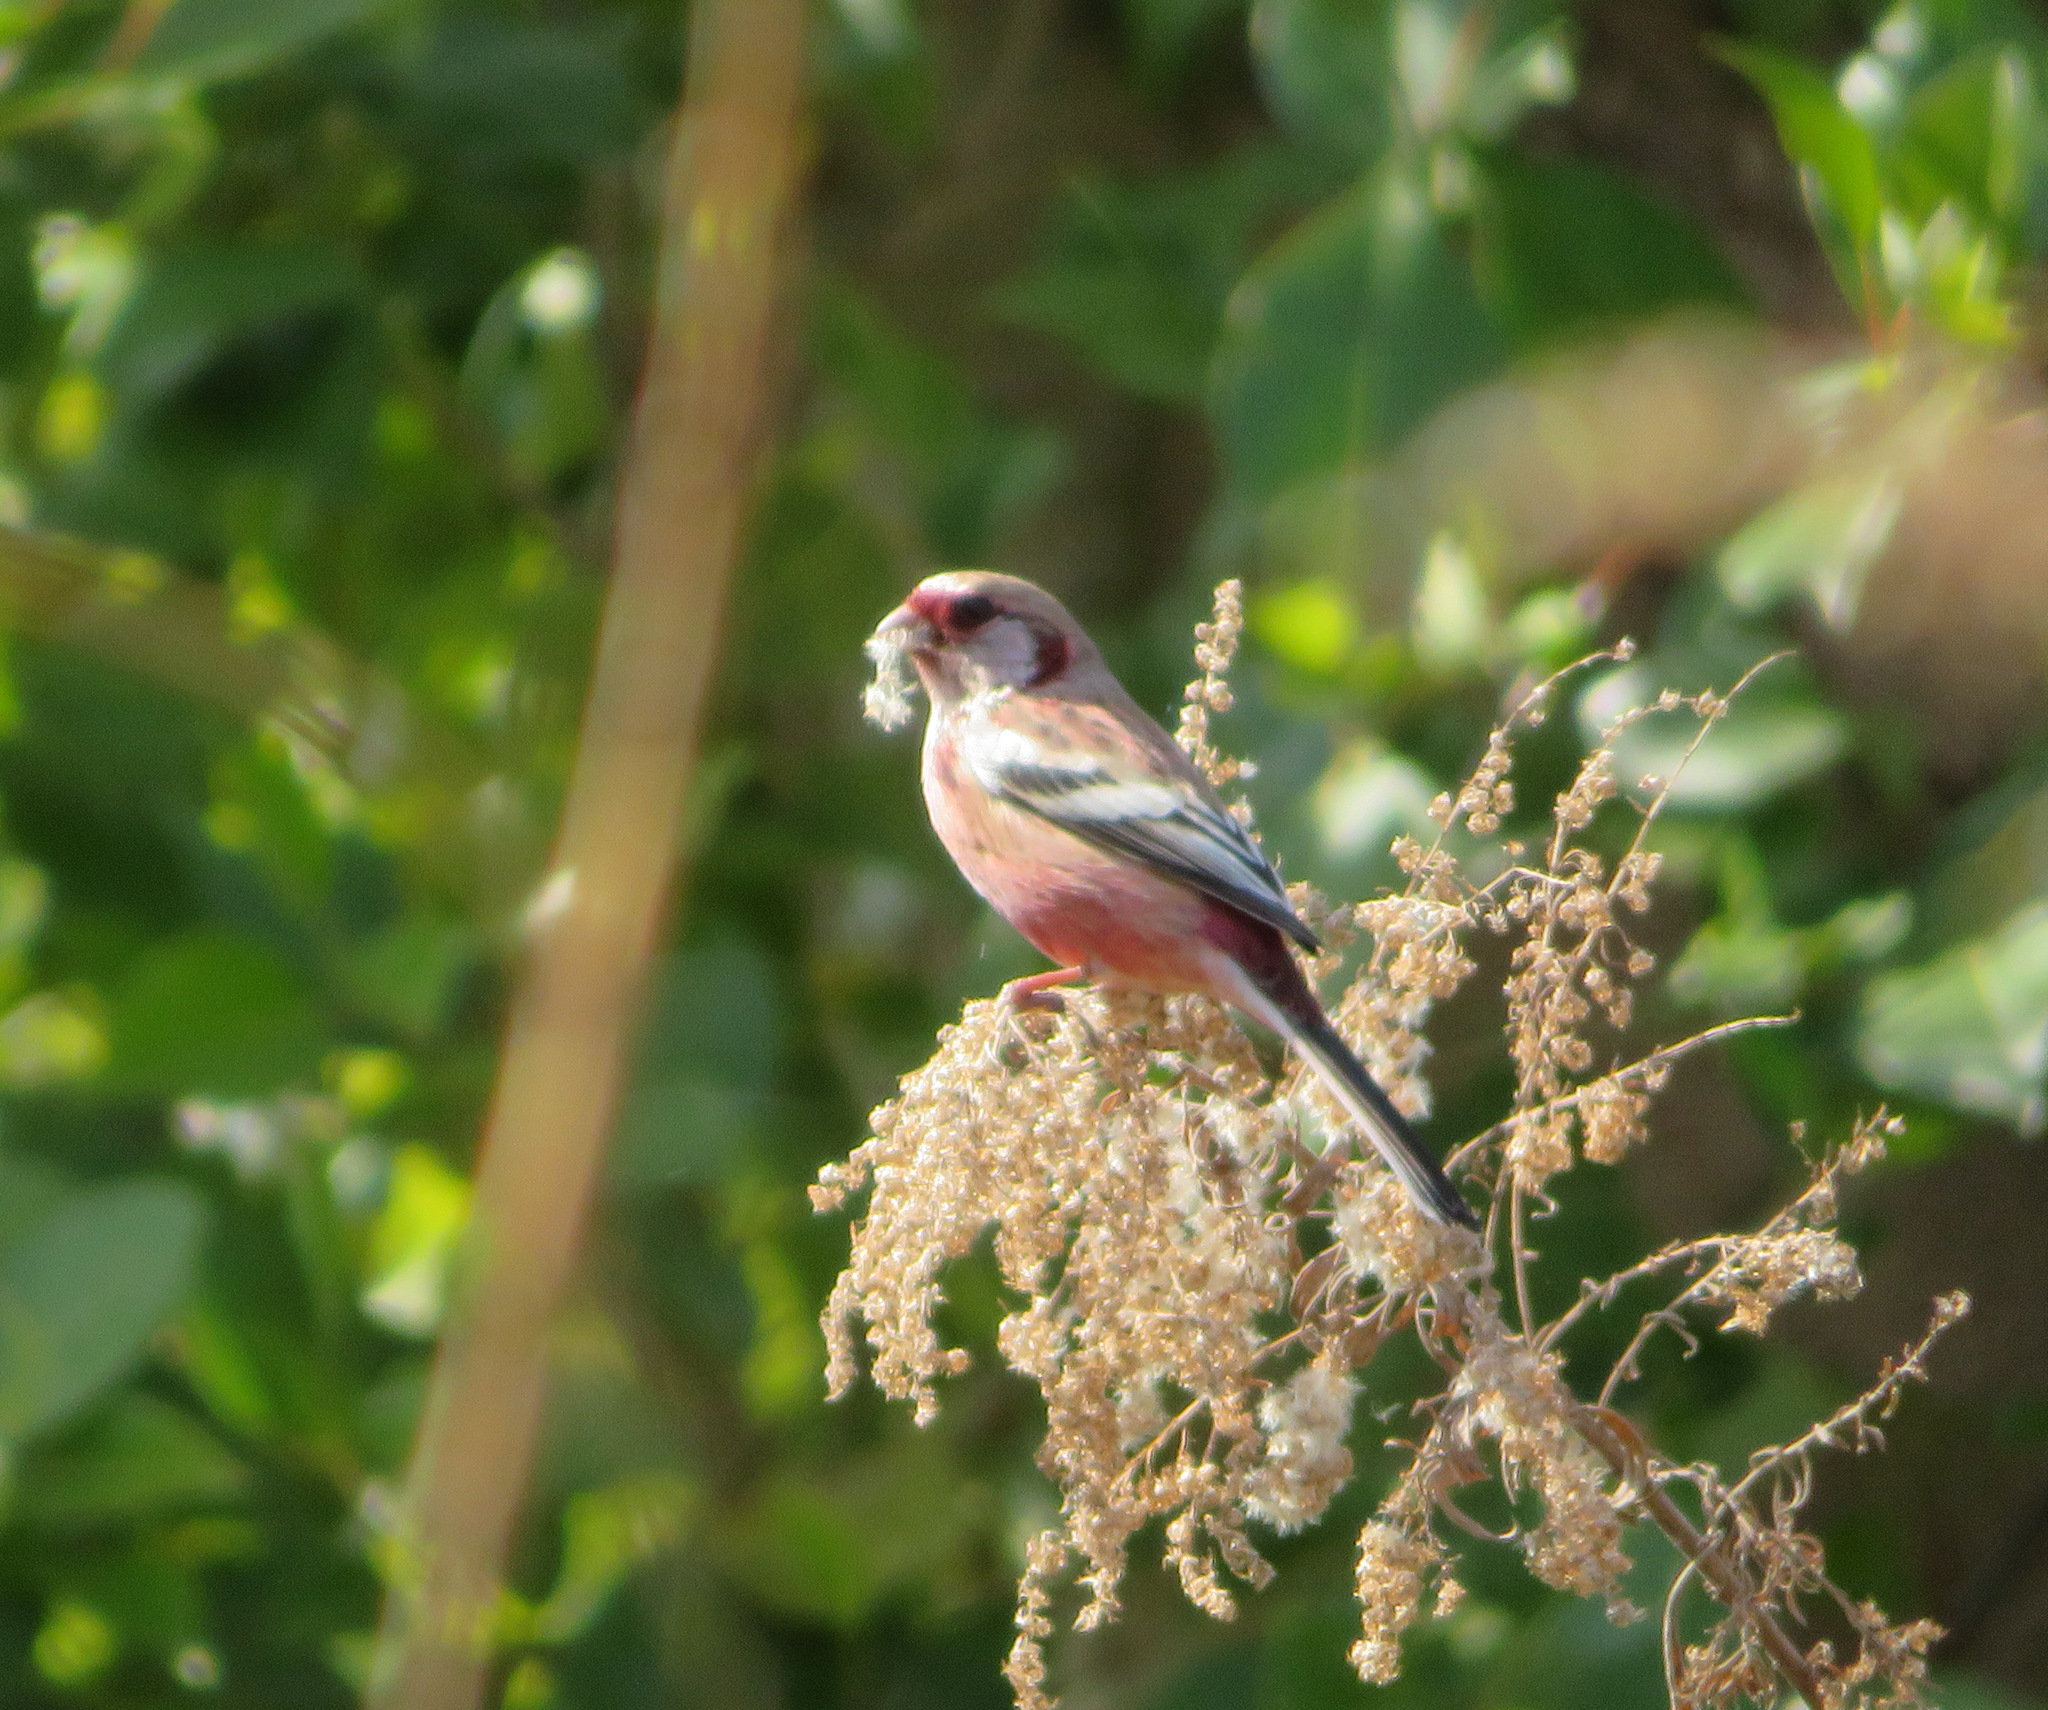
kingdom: Animalia
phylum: Chordata
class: Aves
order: Passeriformes
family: Fringillidae
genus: Carpodacus
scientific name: Carpodacus sibiricus
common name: Long-tailed rosefinch
